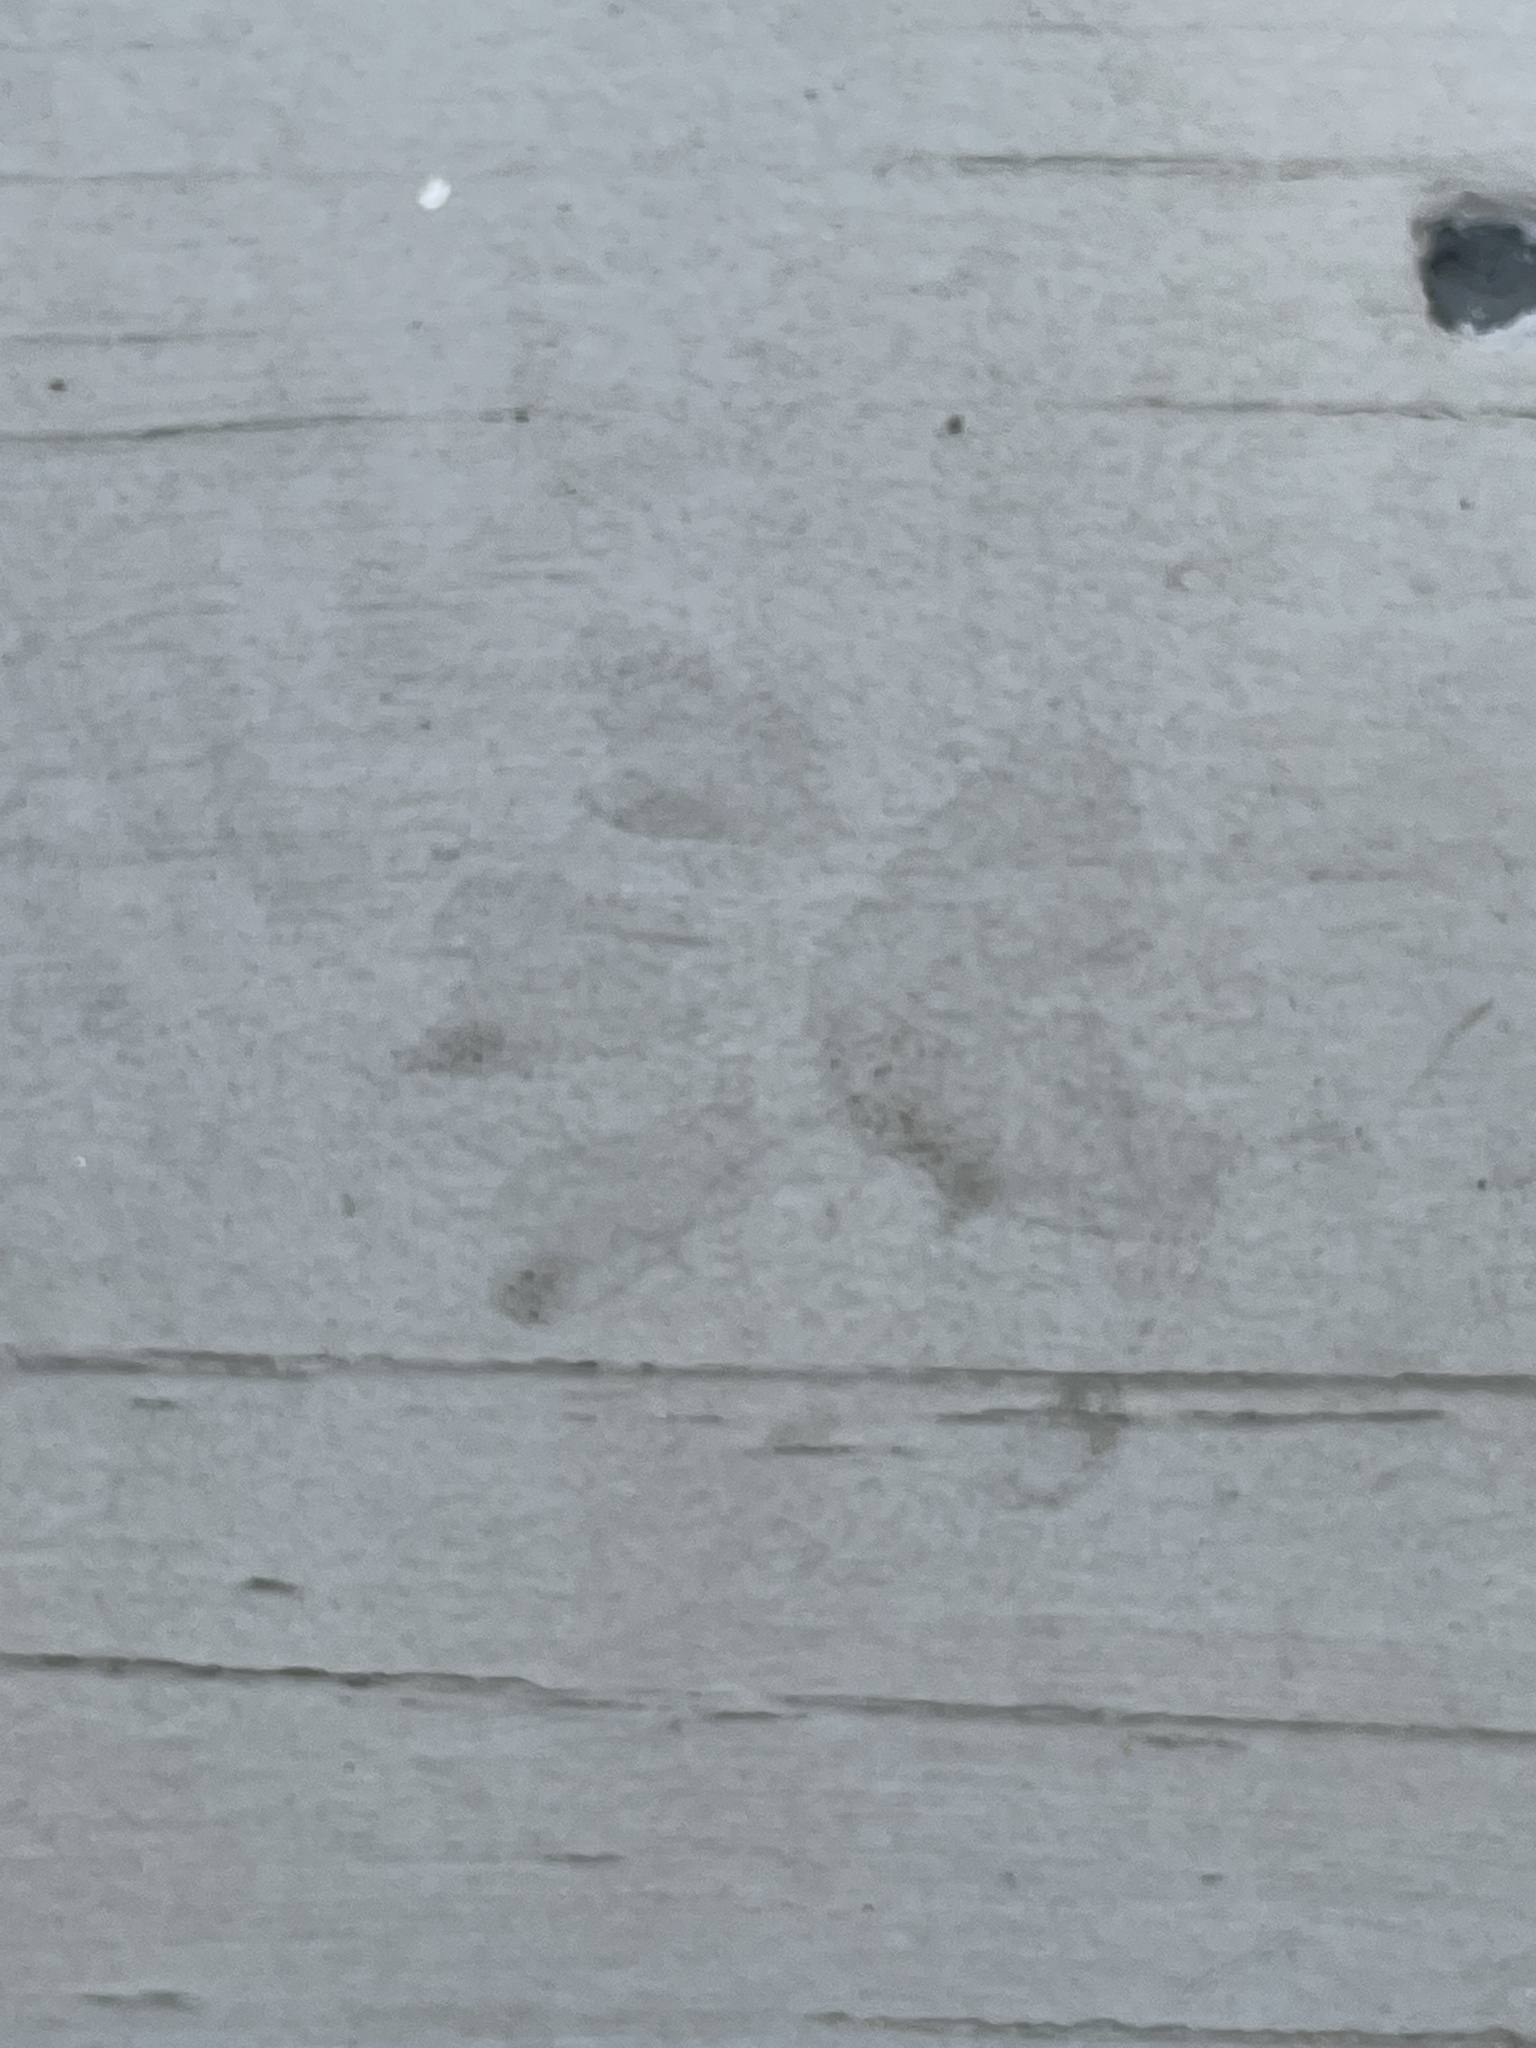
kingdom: Animalia
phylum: Chordata
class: Mammalia
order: Carnivora
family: Procyonidae
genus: Procyon
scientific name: Procyon lotor
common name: Raccoon
